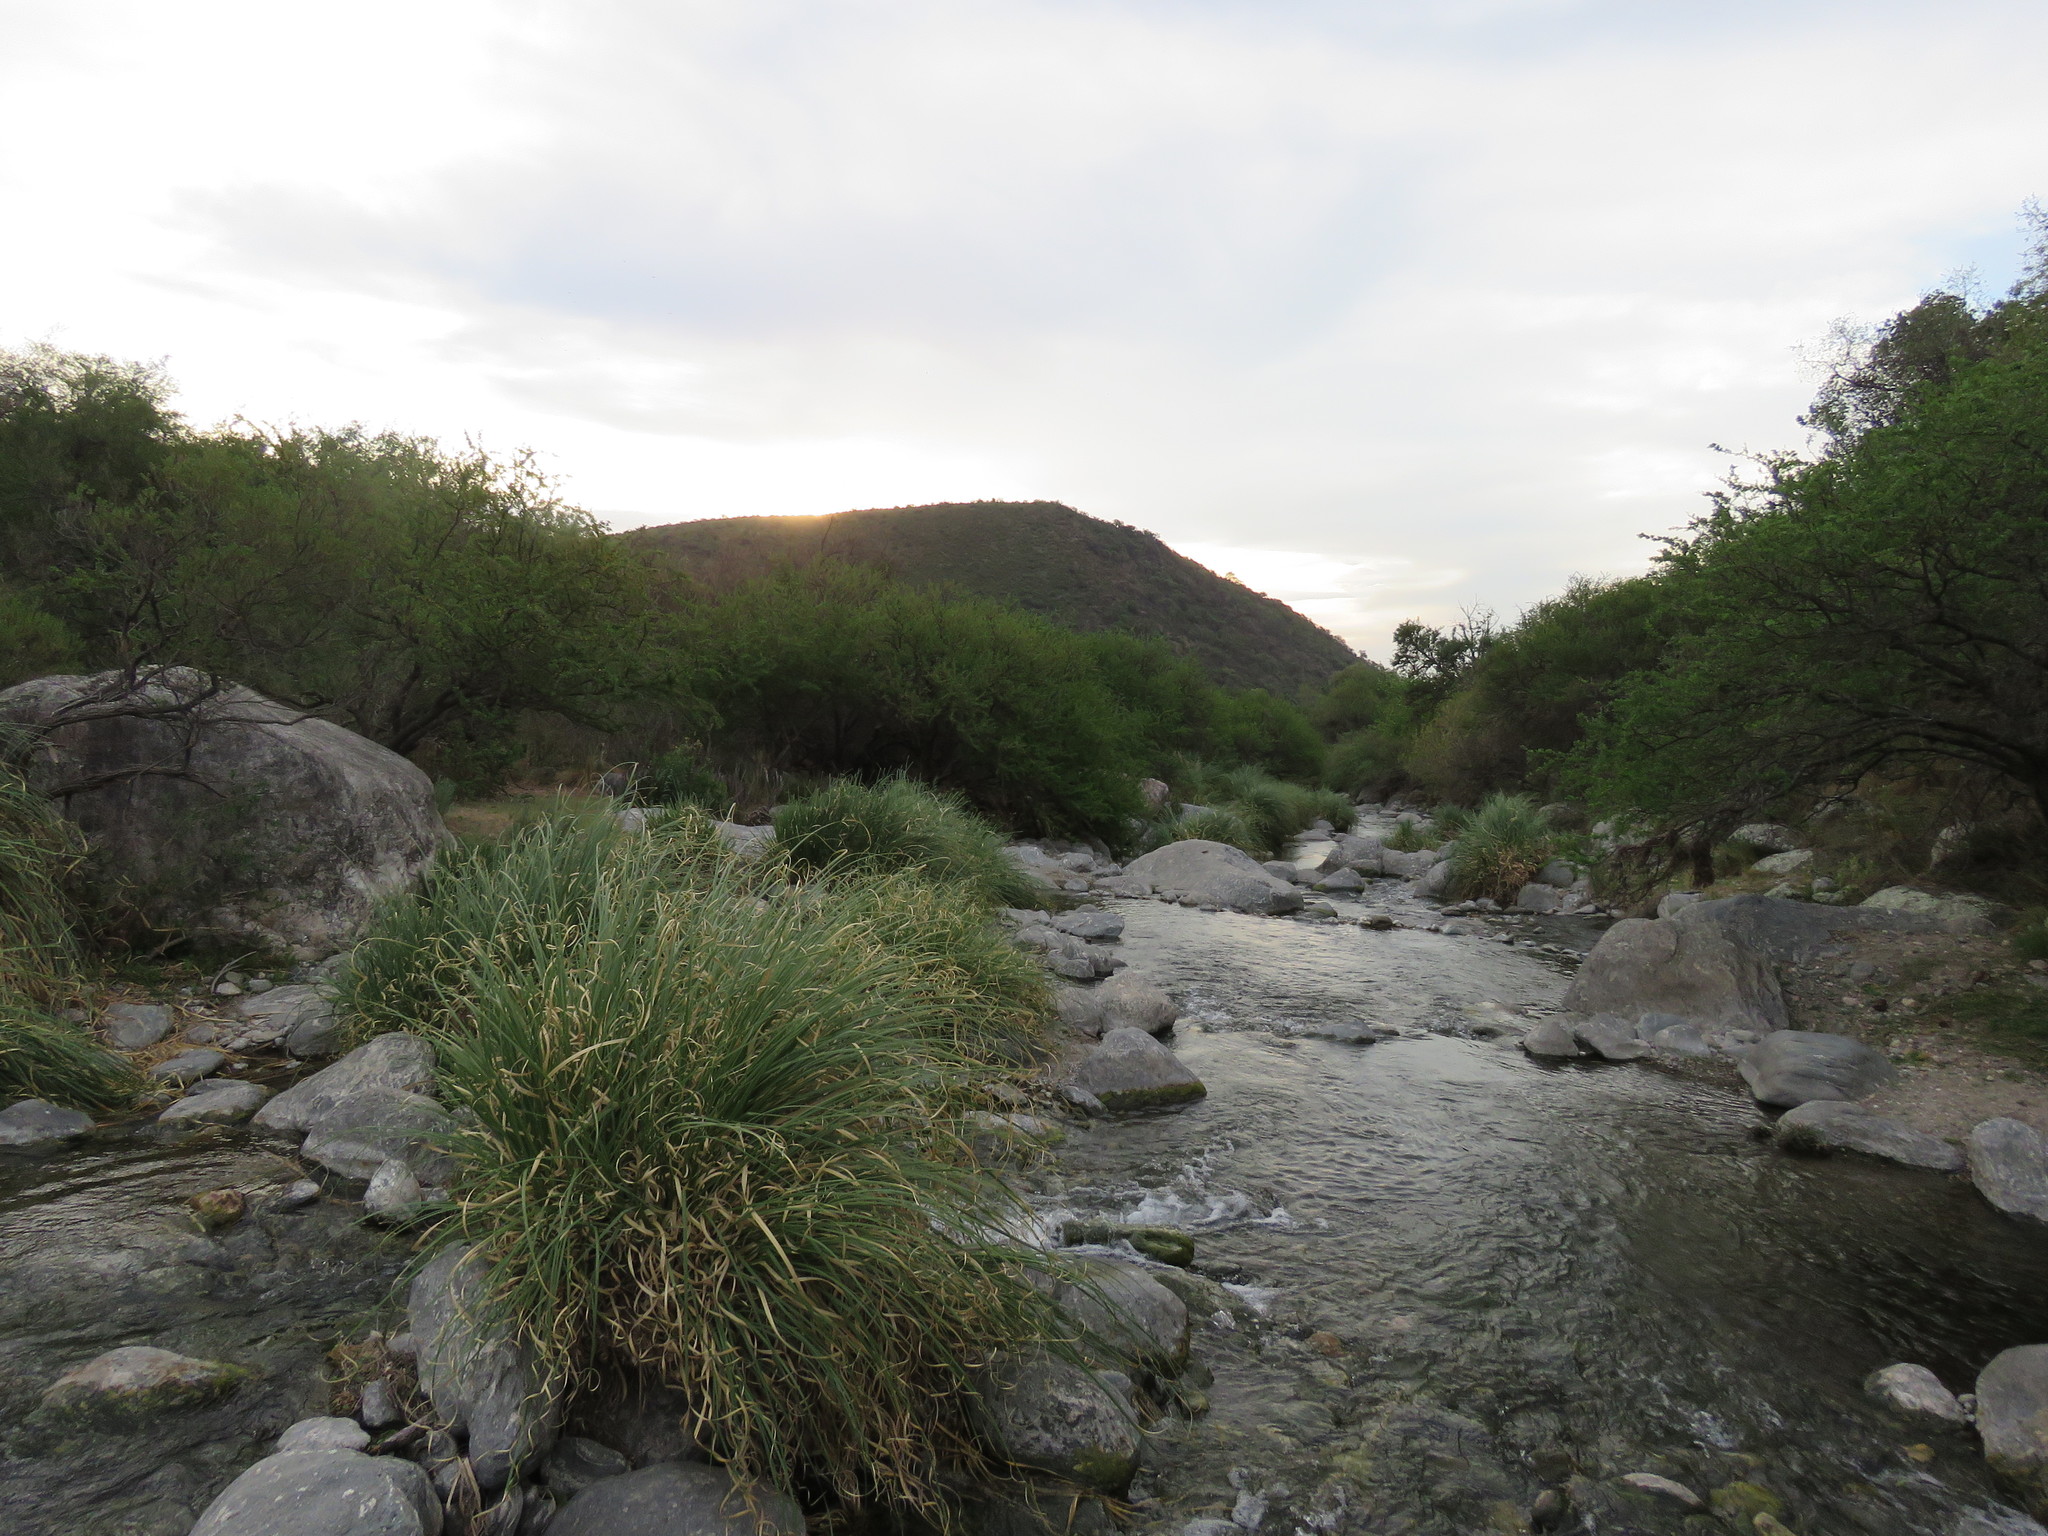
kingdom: Plantae
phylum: Tracheophyta
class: Liliopsida
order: Poales
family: Poaceae
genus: Cortaderia
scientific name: Cortaderia selloana
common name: Uruguayan pampas grass
